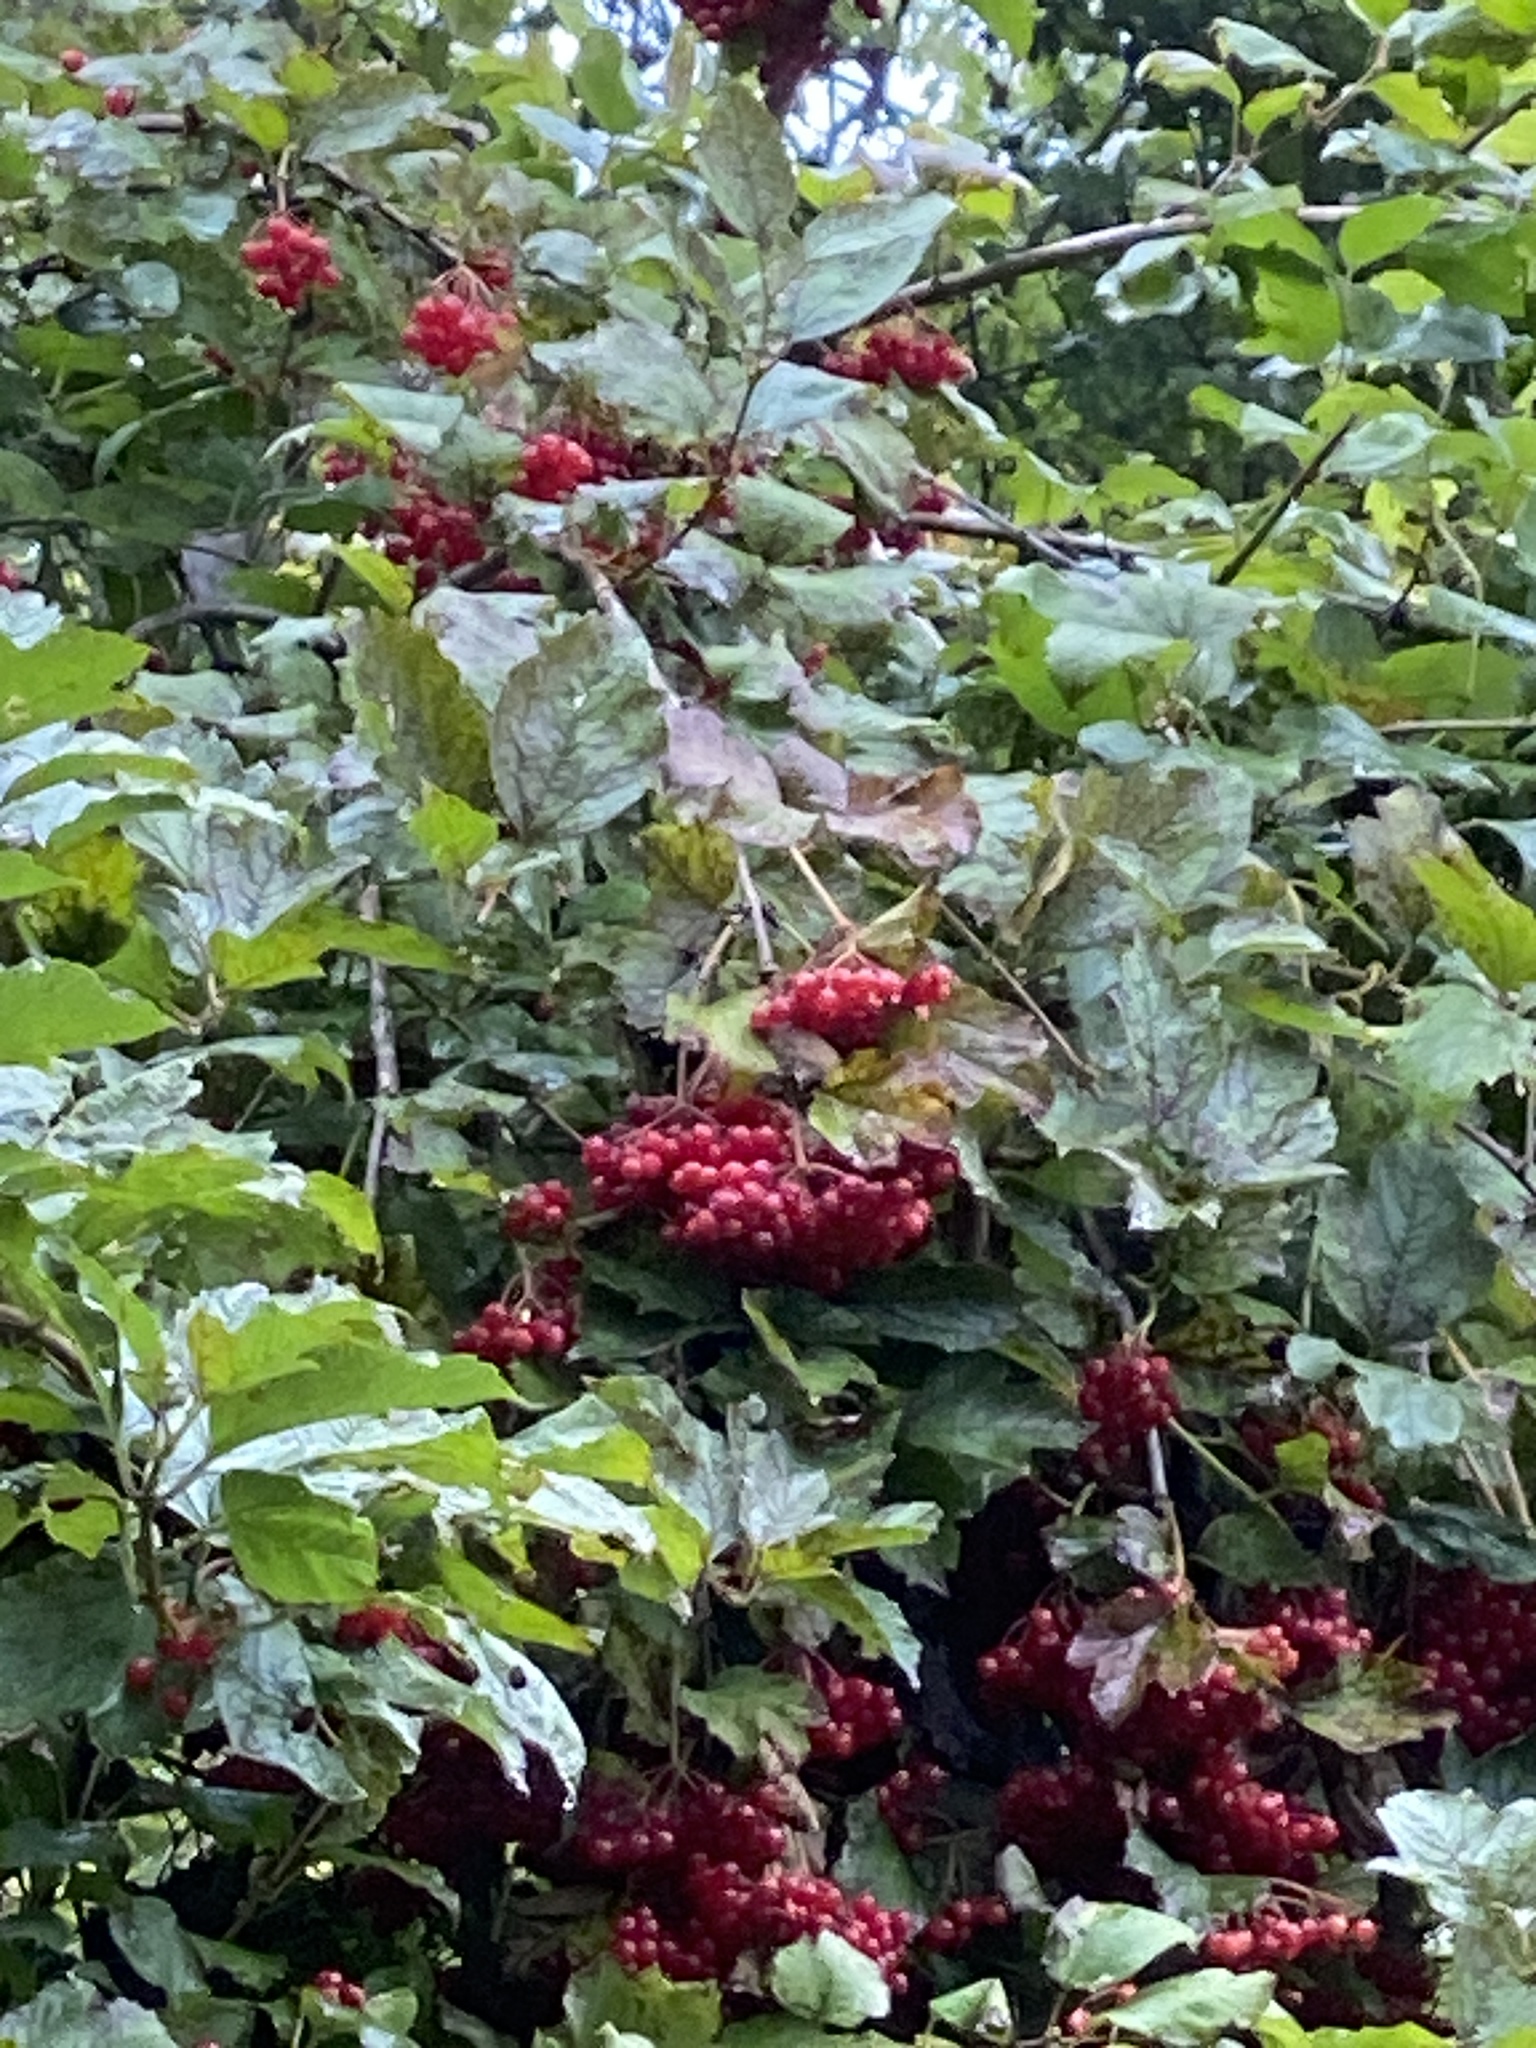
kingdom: Plantae
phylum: Tracheophyta
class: Magnoliopsida
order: Dipsacales
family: Viburnaceae
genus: Viburnum
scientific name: Viburnum opulus
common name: Guelder-rose
